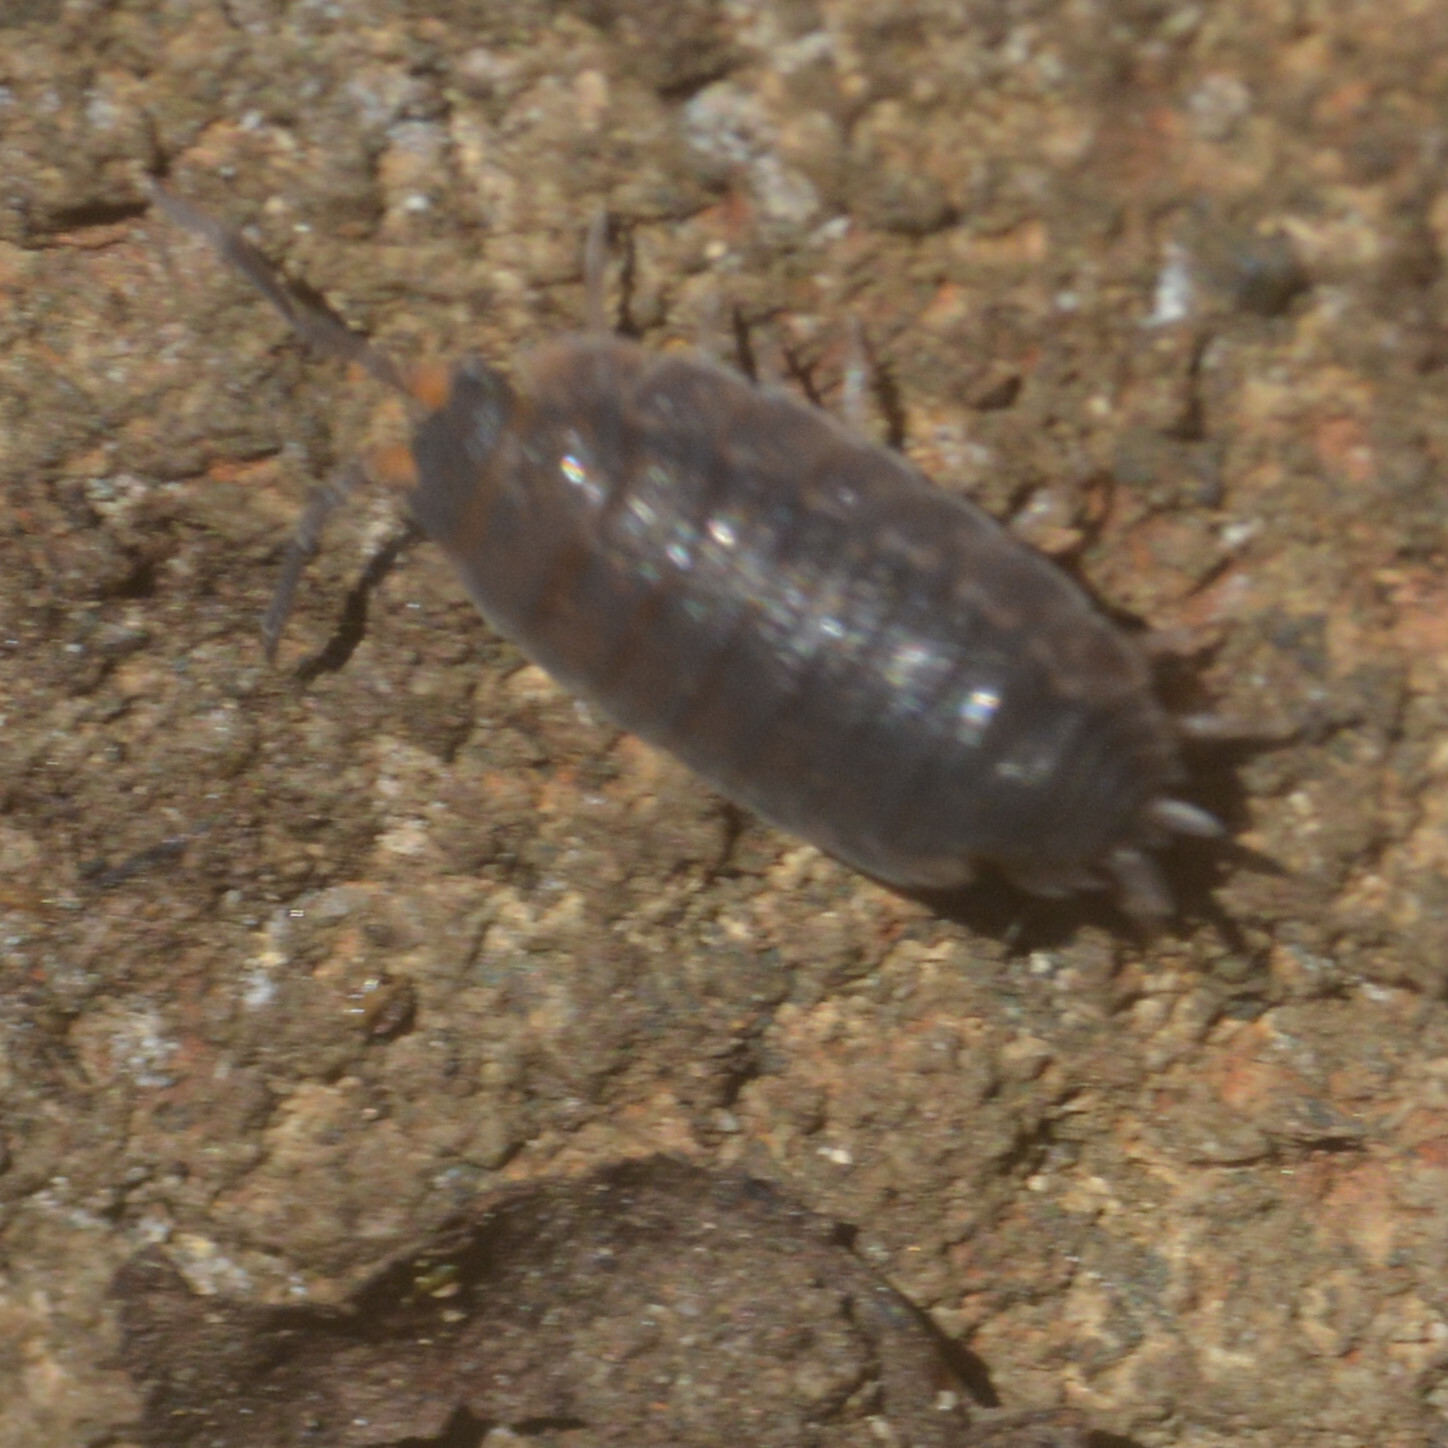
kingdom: Animalia
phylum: Arthropoda
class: Malacostraca
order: Isopoda
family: Porcellionidae
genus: Porcellio
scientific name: Porcellio scaber
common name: Common rough woodlouse
